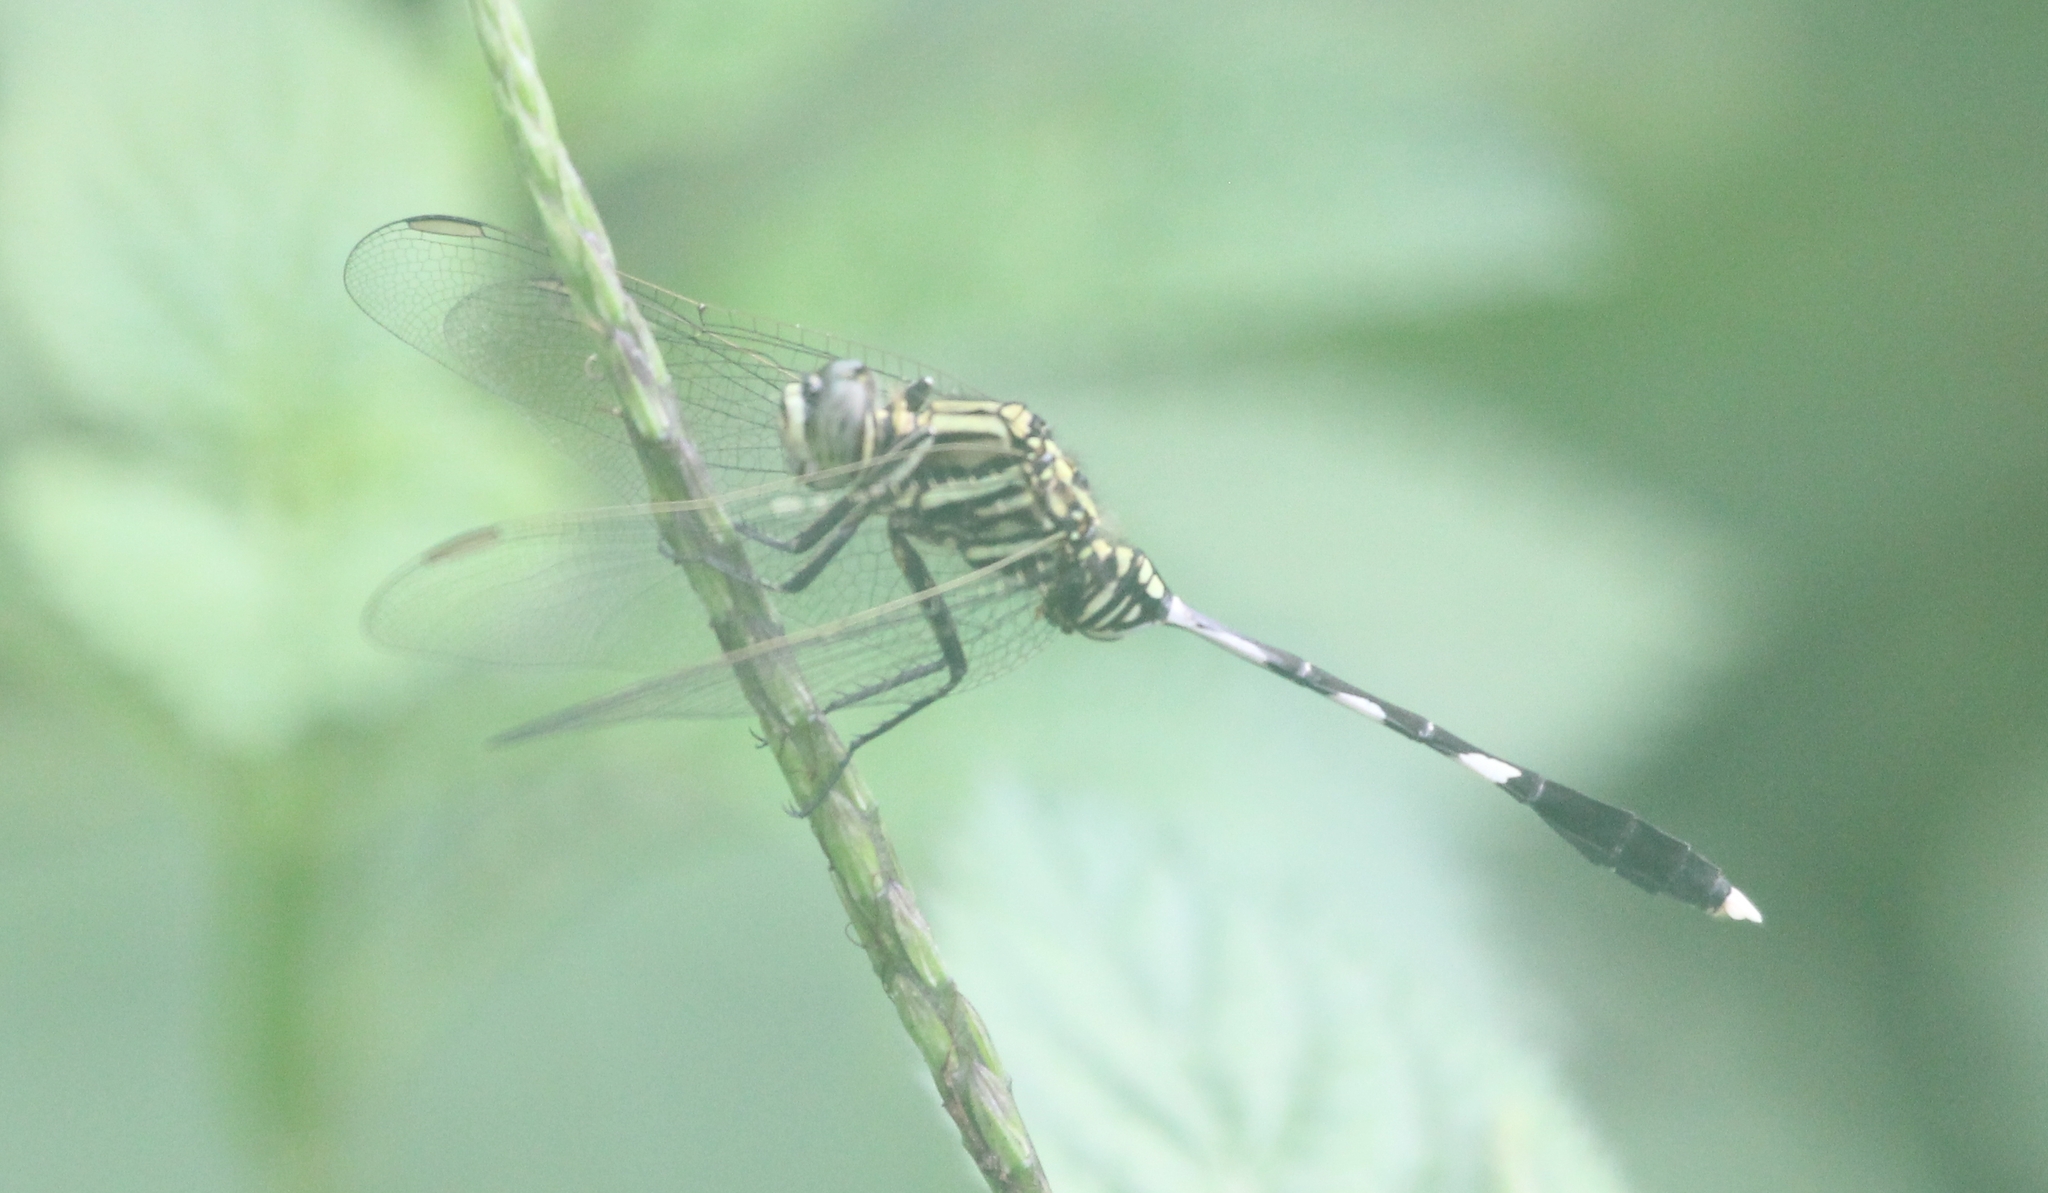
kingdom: Animalia
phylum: Arthropoda
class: Insecta
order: Odonata
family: Libellulidae
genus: Orthetrum
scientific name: Orthetrum sabina
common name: Slender skimmer
